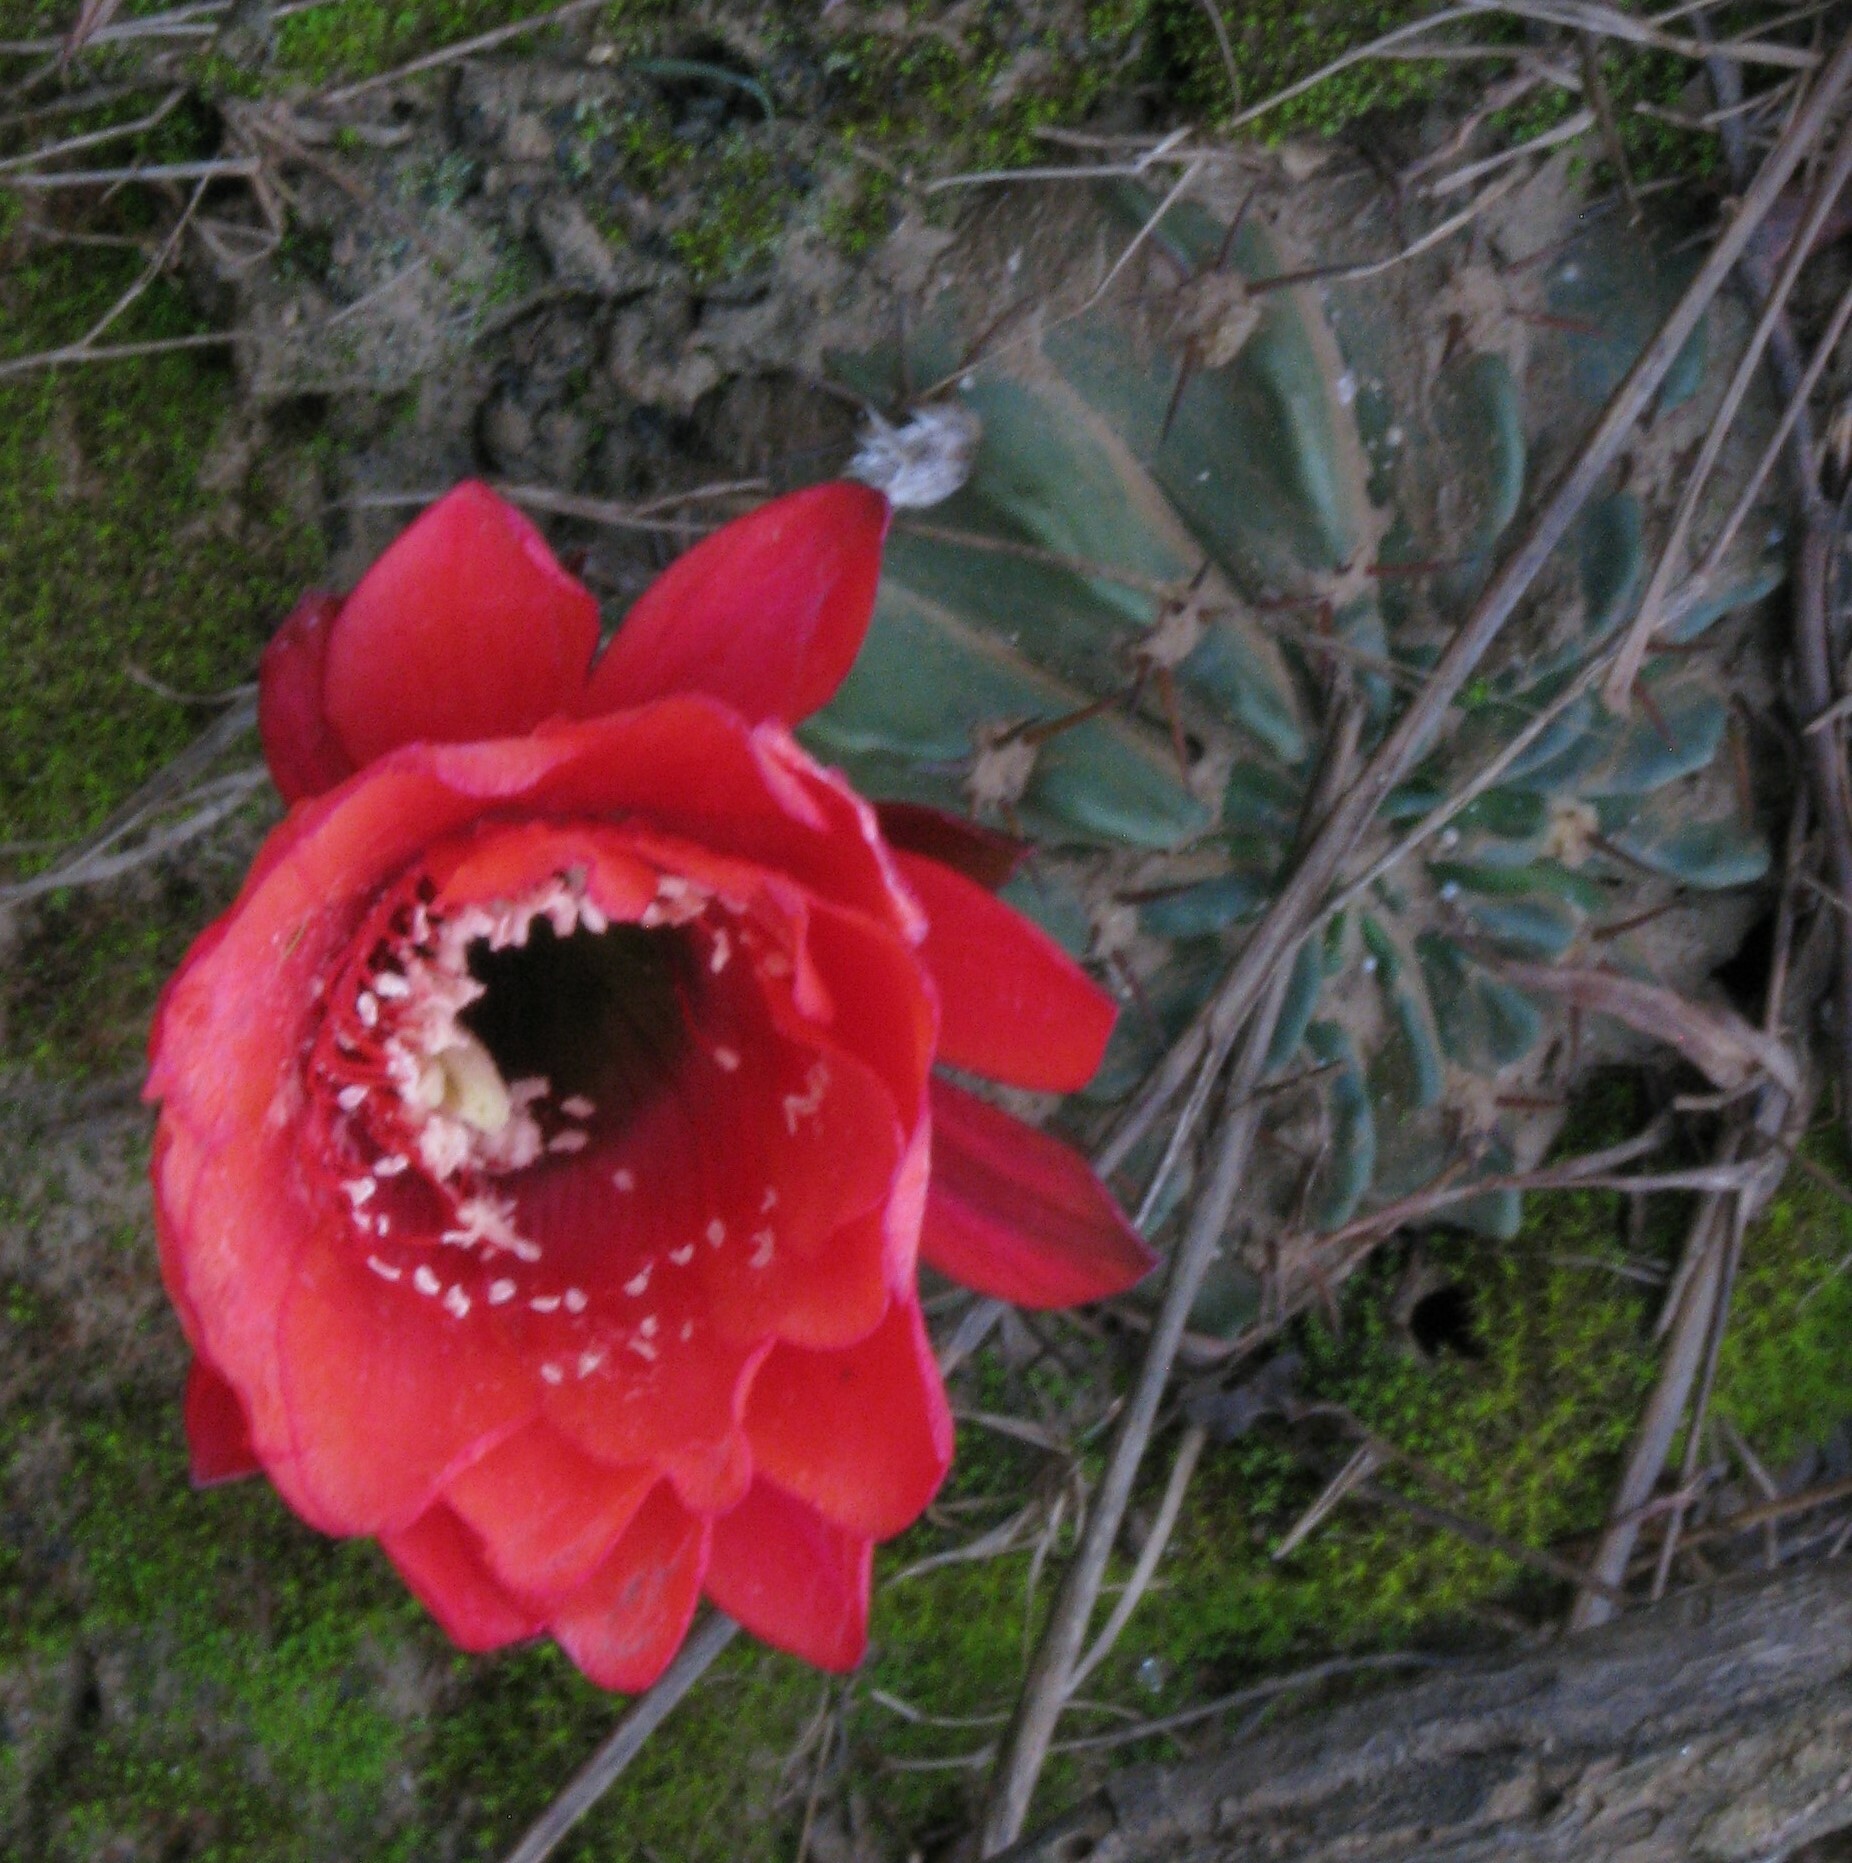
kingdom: Plantae
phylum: Tracheophyta
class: Magnoliopsida
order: Caryophyllales
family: Cactaceae
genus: Lobivia
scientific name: Lobivia calorubra
